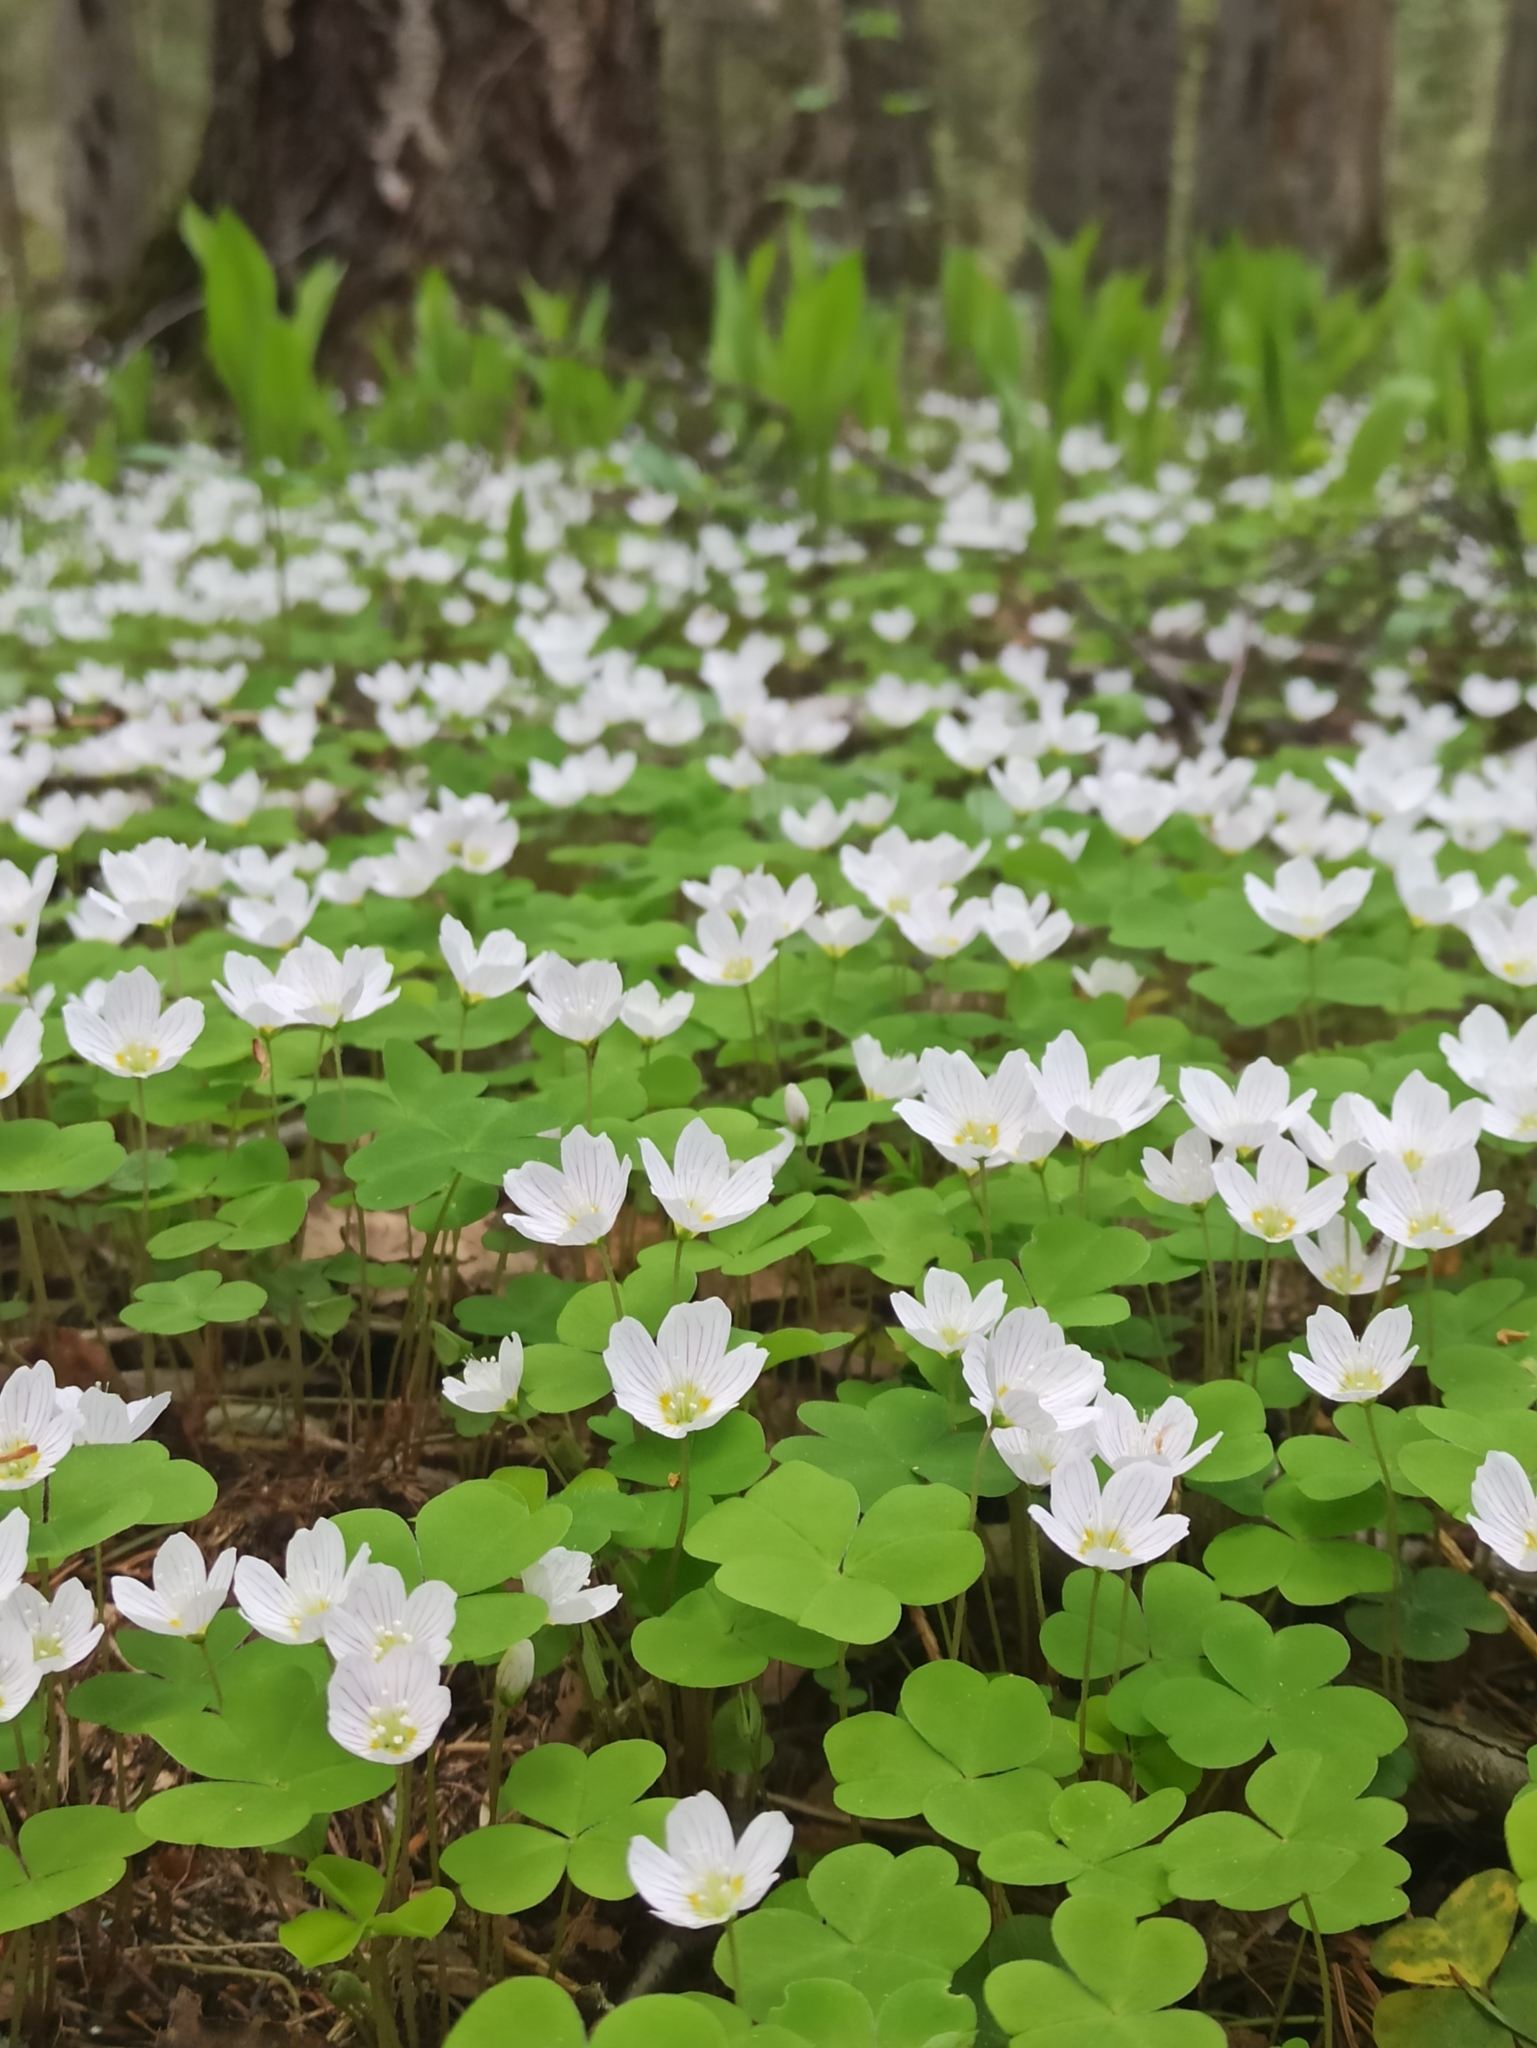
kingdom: Plantae
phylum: Tracheophyta
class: Magnoliopsida
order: Oxalidales
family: Oxalidaceae
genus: Oxalis
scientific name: Oxalis acetosella
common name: Wood-sorrel
